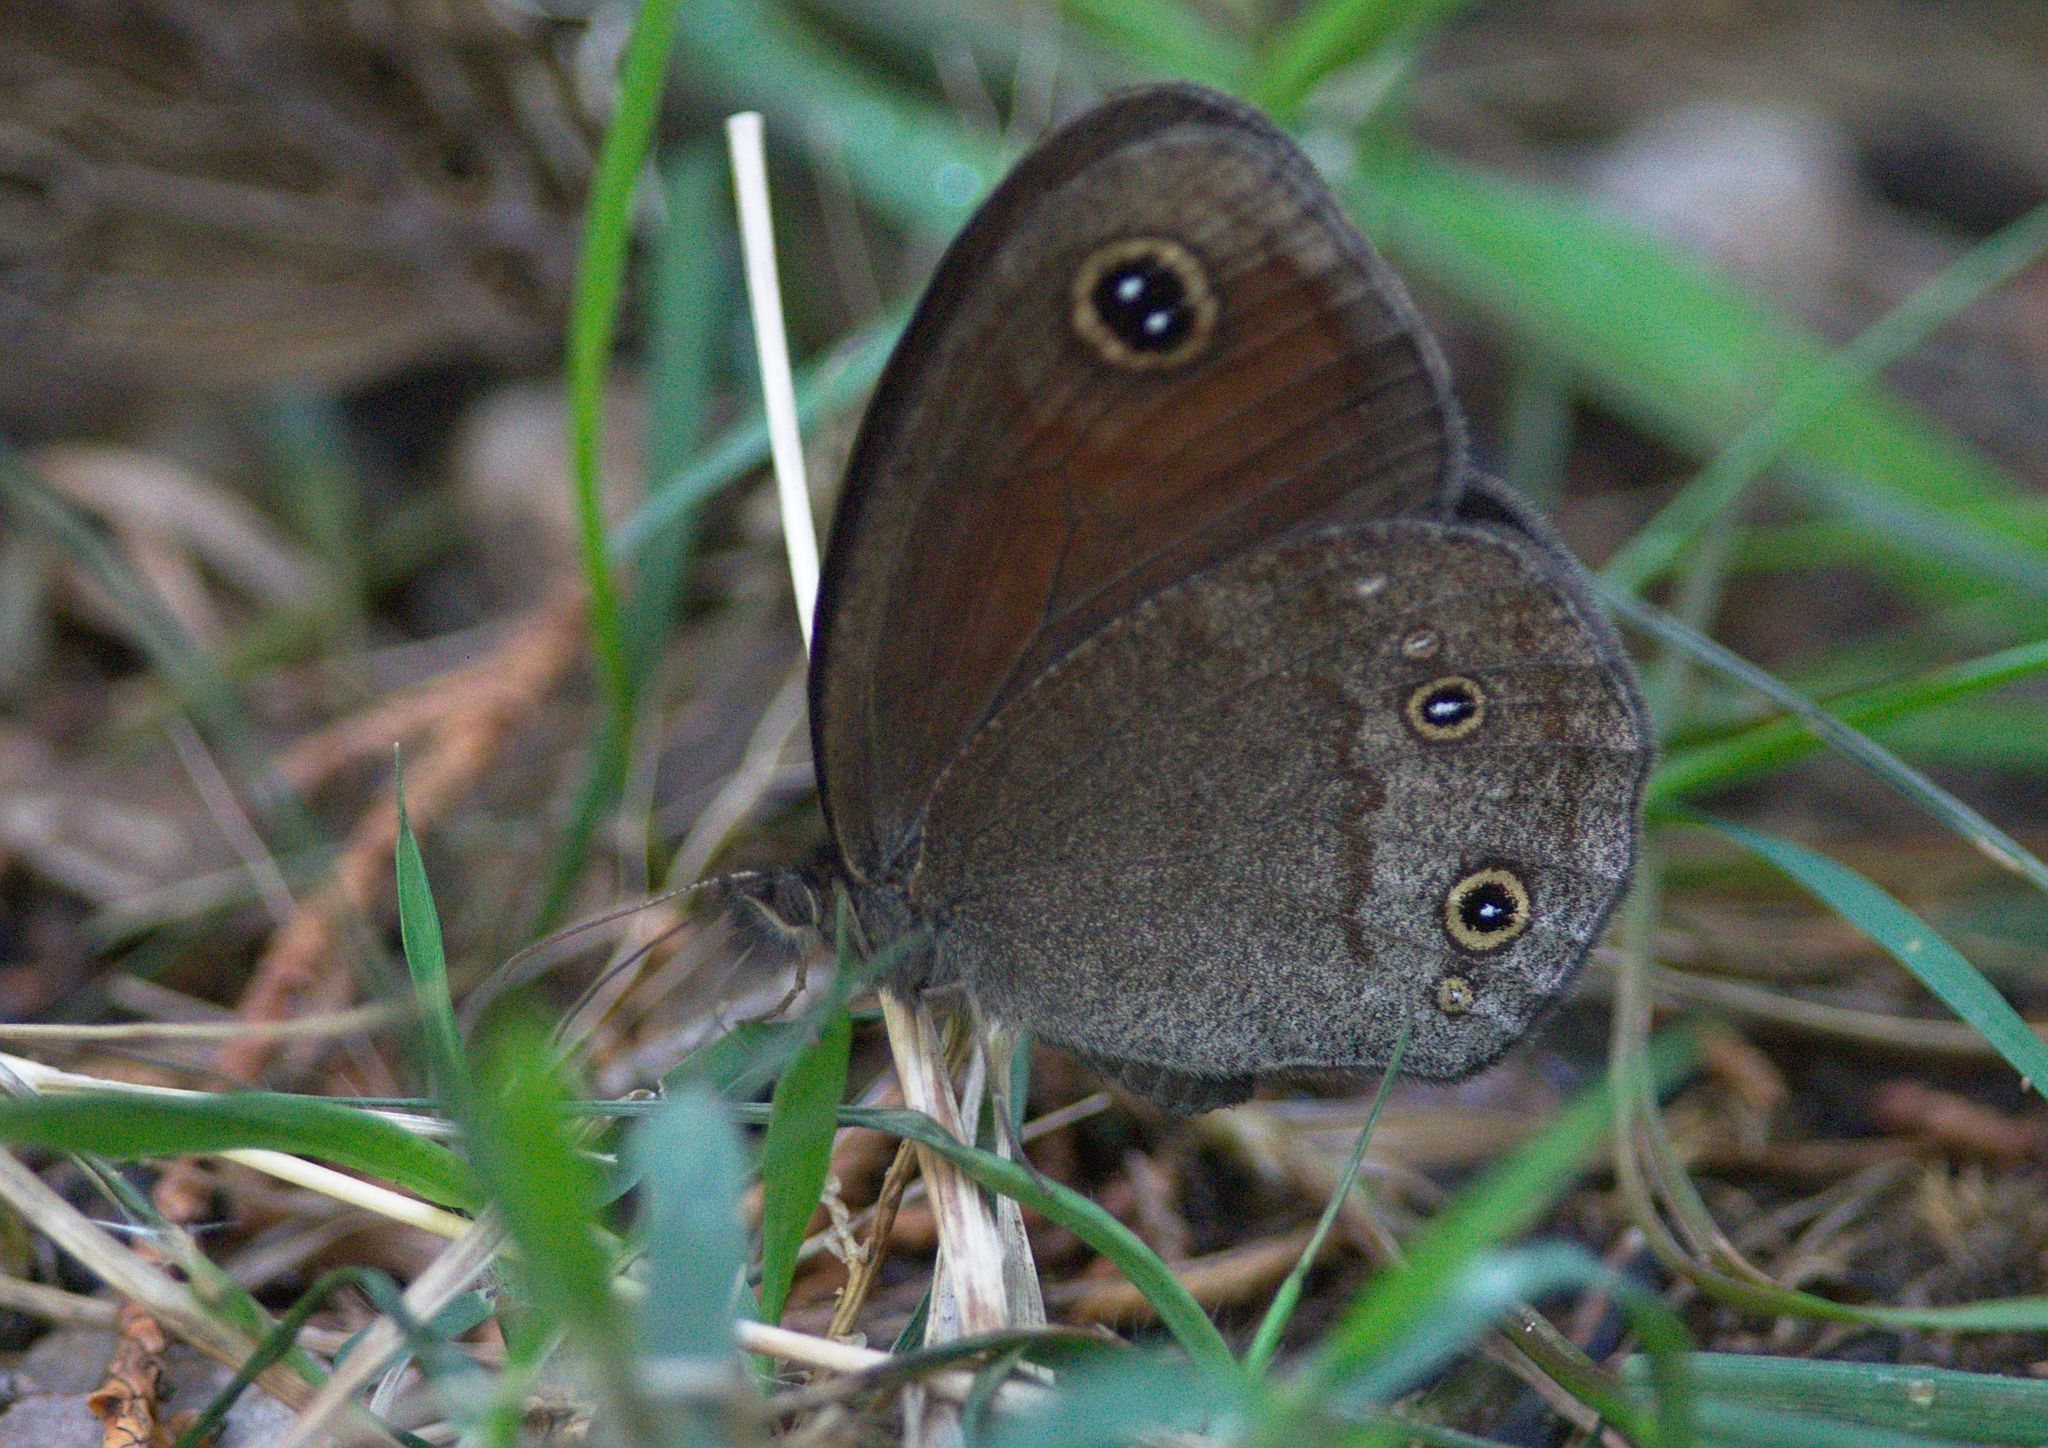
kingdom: Animalia
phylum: Arthropoda
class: Insecta
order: Lepidoptera
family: Nymphalidae
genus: Callerebia
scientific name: Callerebia nirmala
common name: Common argus
